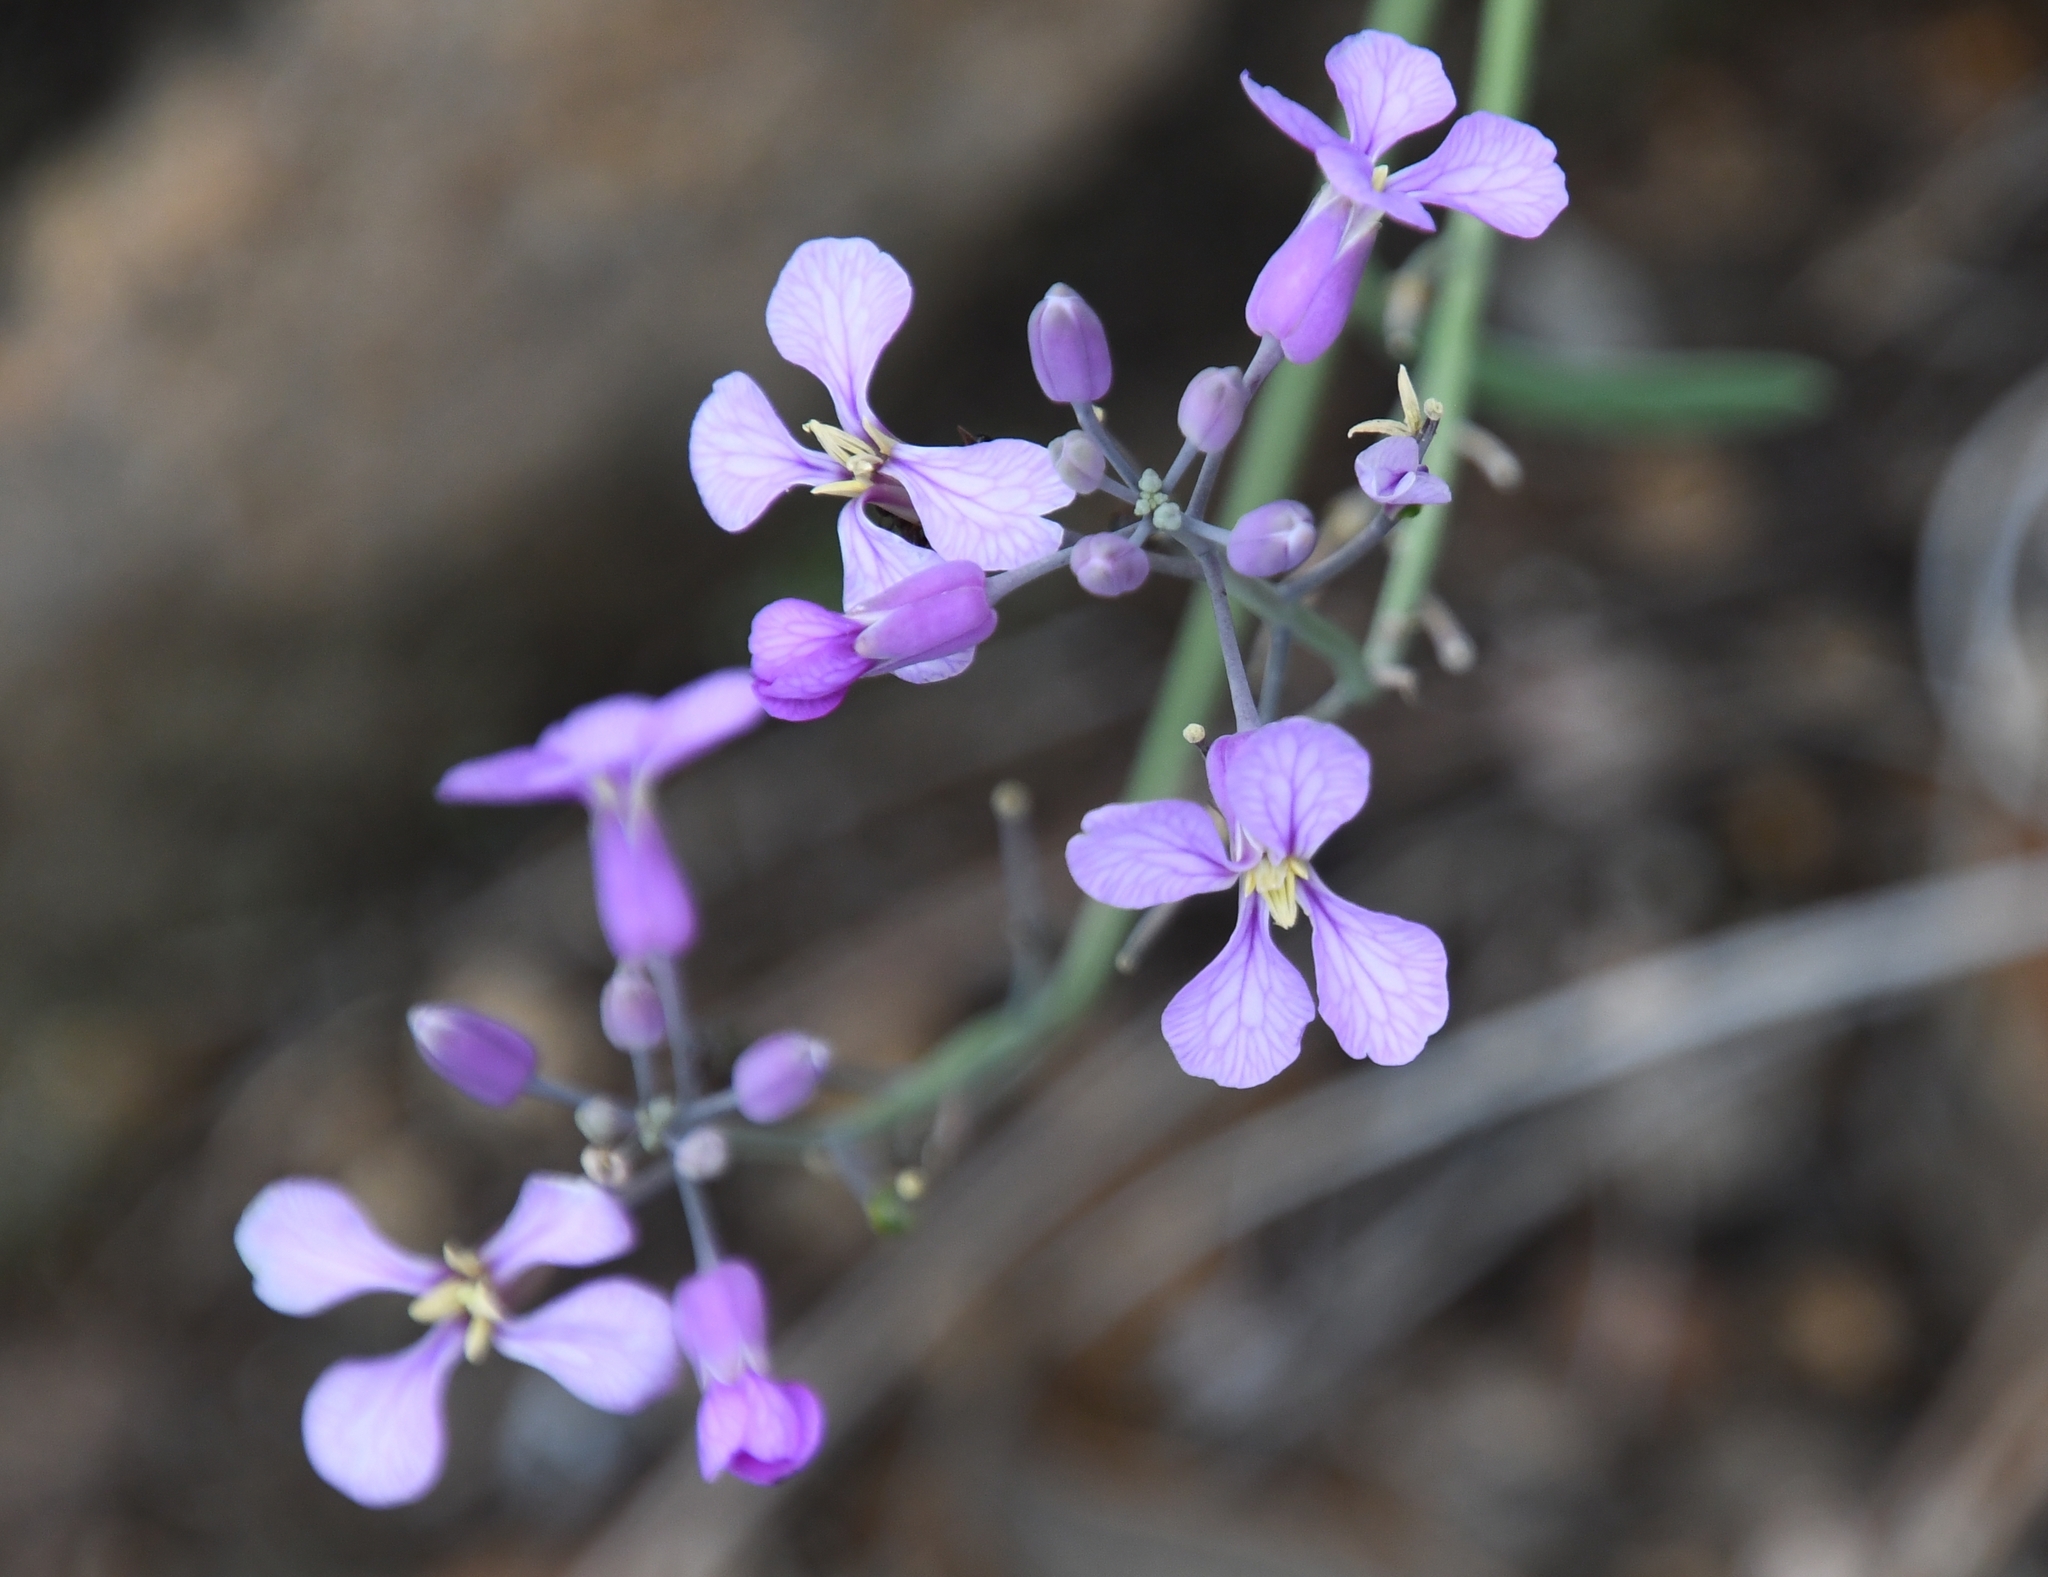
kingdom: Plantae
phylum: Tracheophyta
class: Magnoliopsida
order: Brassicales
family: Brassicaceae
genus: Hesperidanthus
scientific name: Hesperidanthus linearifolius
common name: Slim-leaf plains mustard
